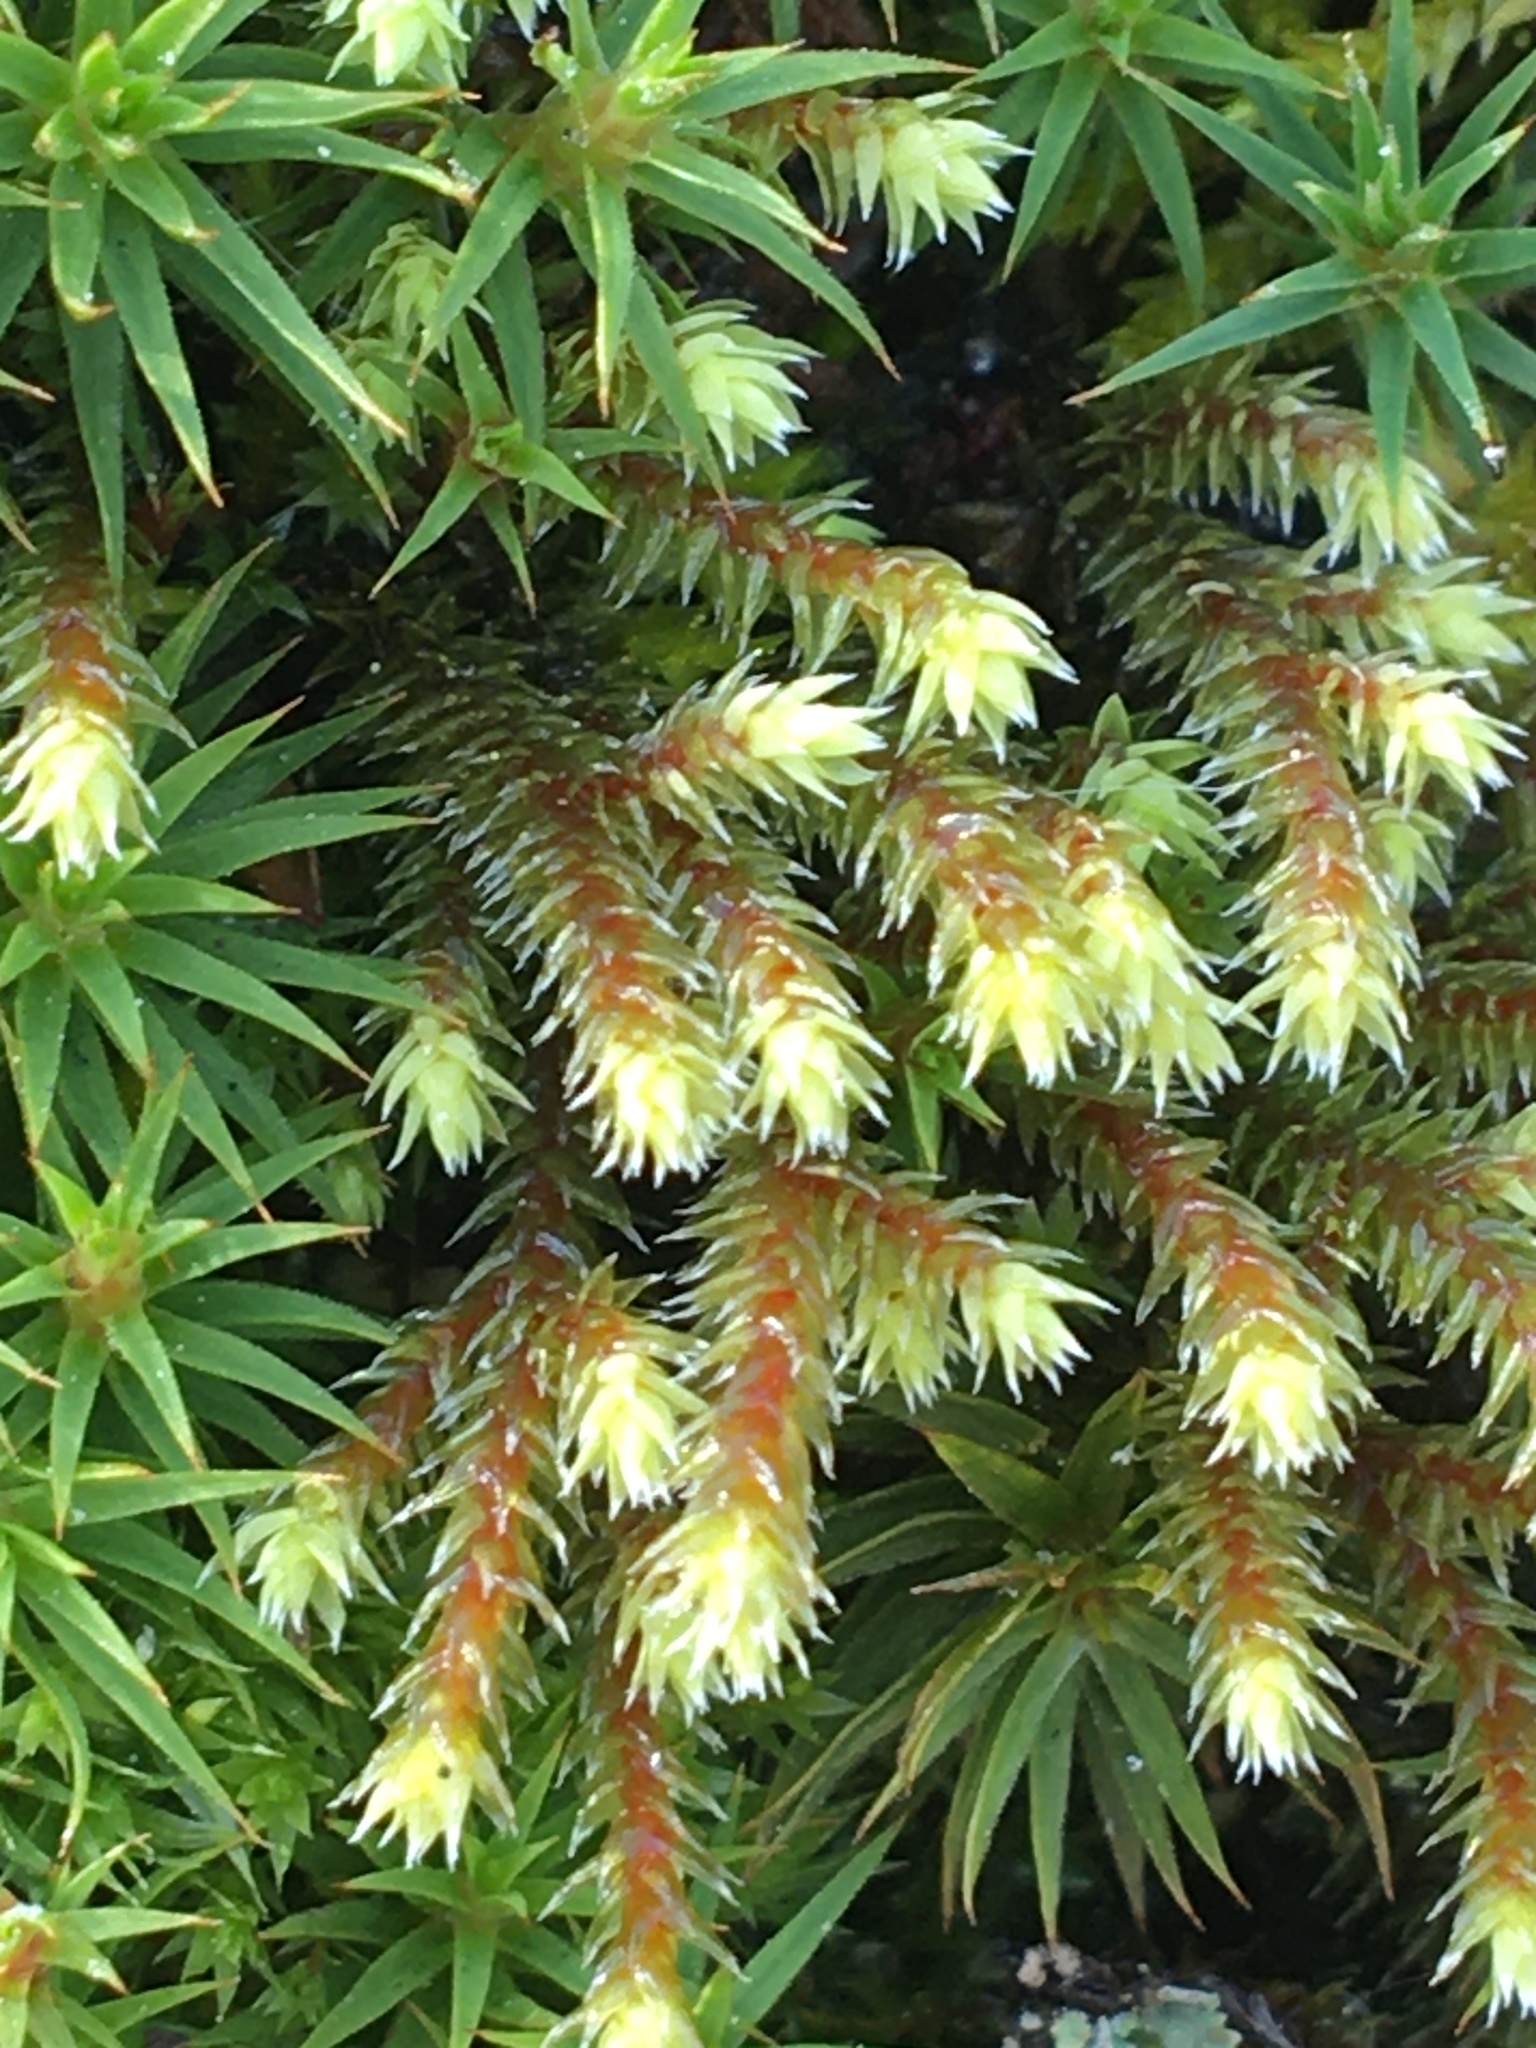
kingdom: Plantae
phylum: Bryophyta
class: Bryopsida
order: Hedwigiales
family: Hedwigiaceae
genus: Hedwigia
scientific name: Hedwigia ciliata
